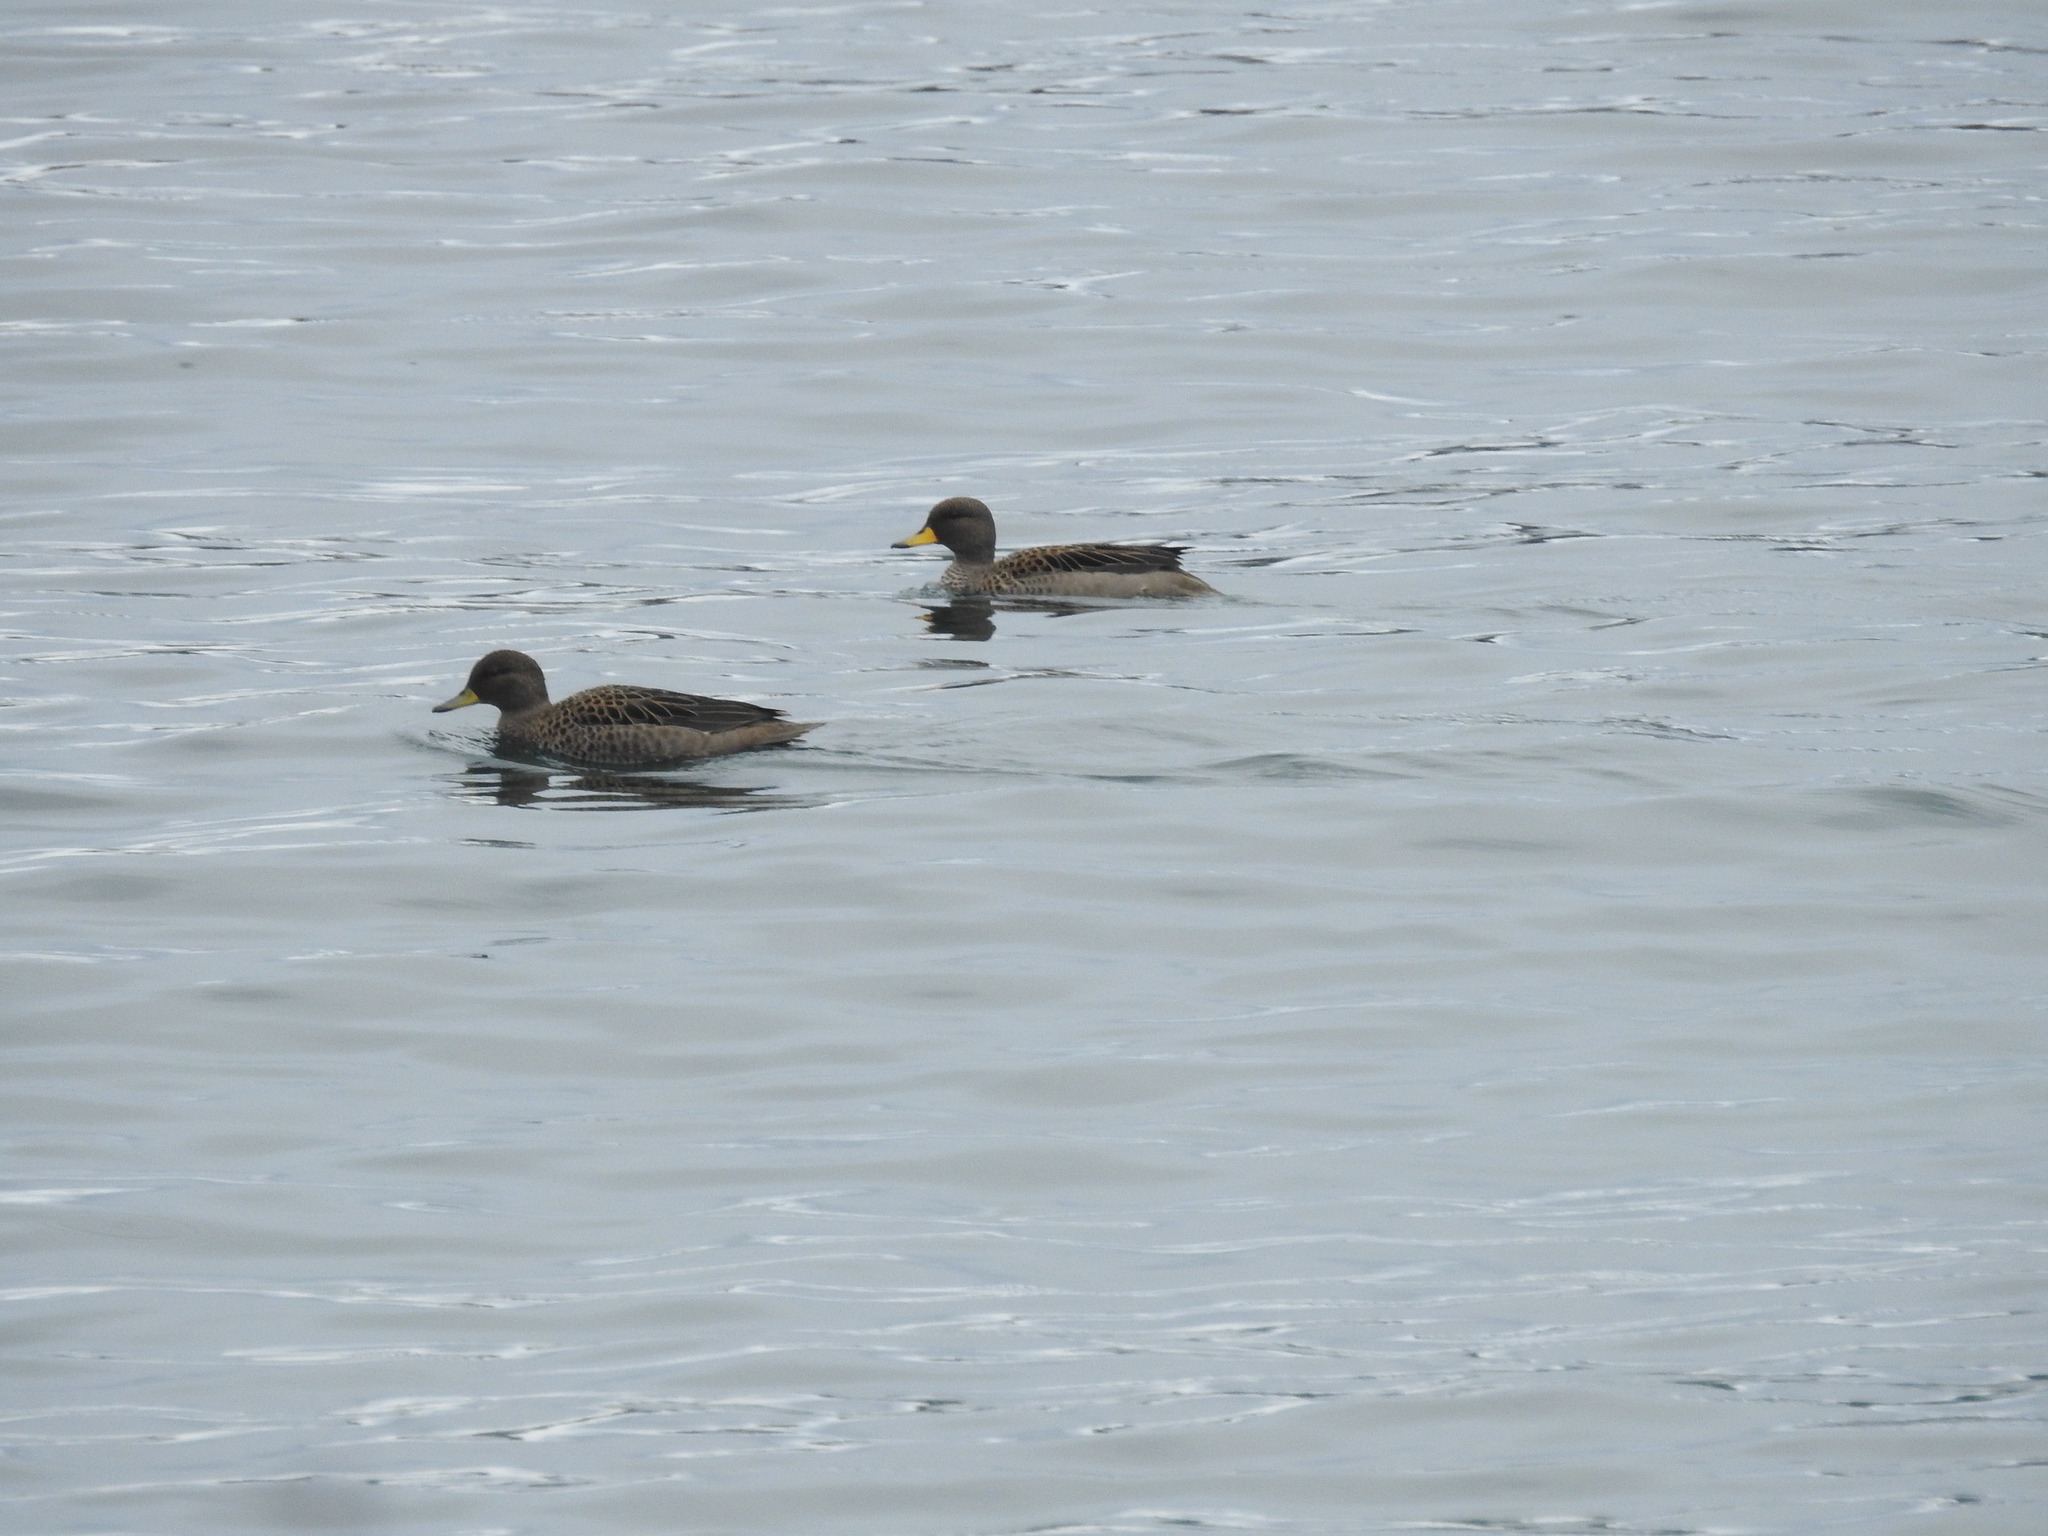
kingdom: Animalia
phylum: Chordata
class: Aves
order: Anseriformes
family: Anatidae
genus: Anas
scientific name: Anas flavirostris
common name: Yellow-billed teal
